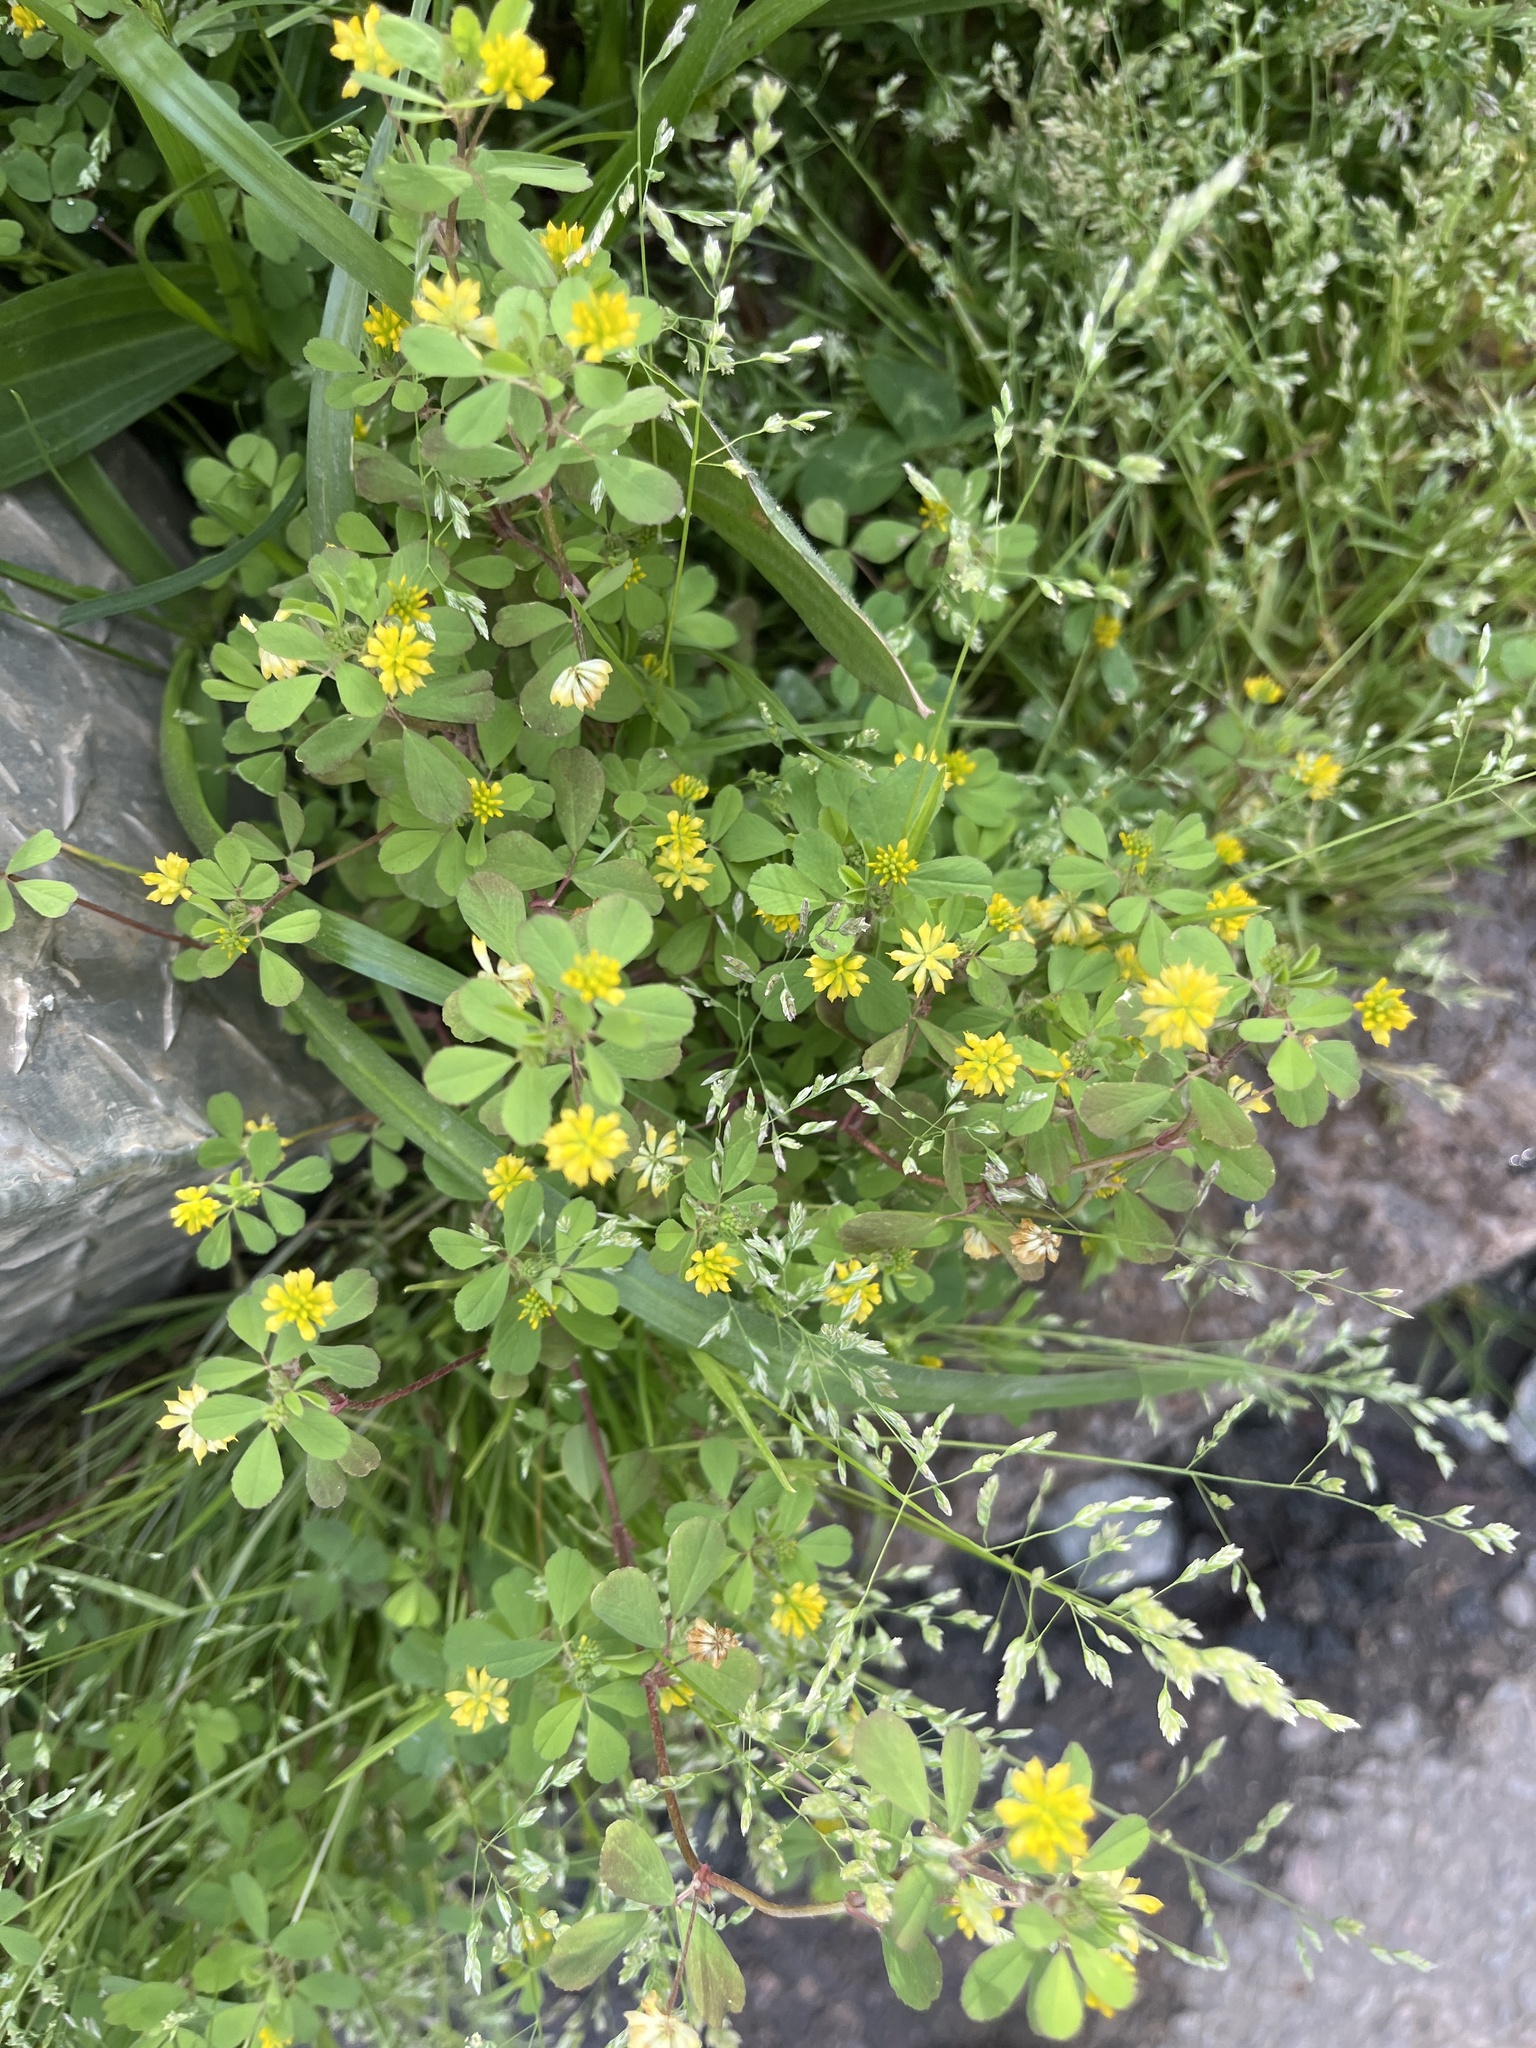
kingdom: Plantae
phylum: Tracheophyta
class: Magnoliopsida
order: Fabales
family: Fabaceae
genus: Trifolium
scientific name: Trifolium dubium
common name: Suckling clover
